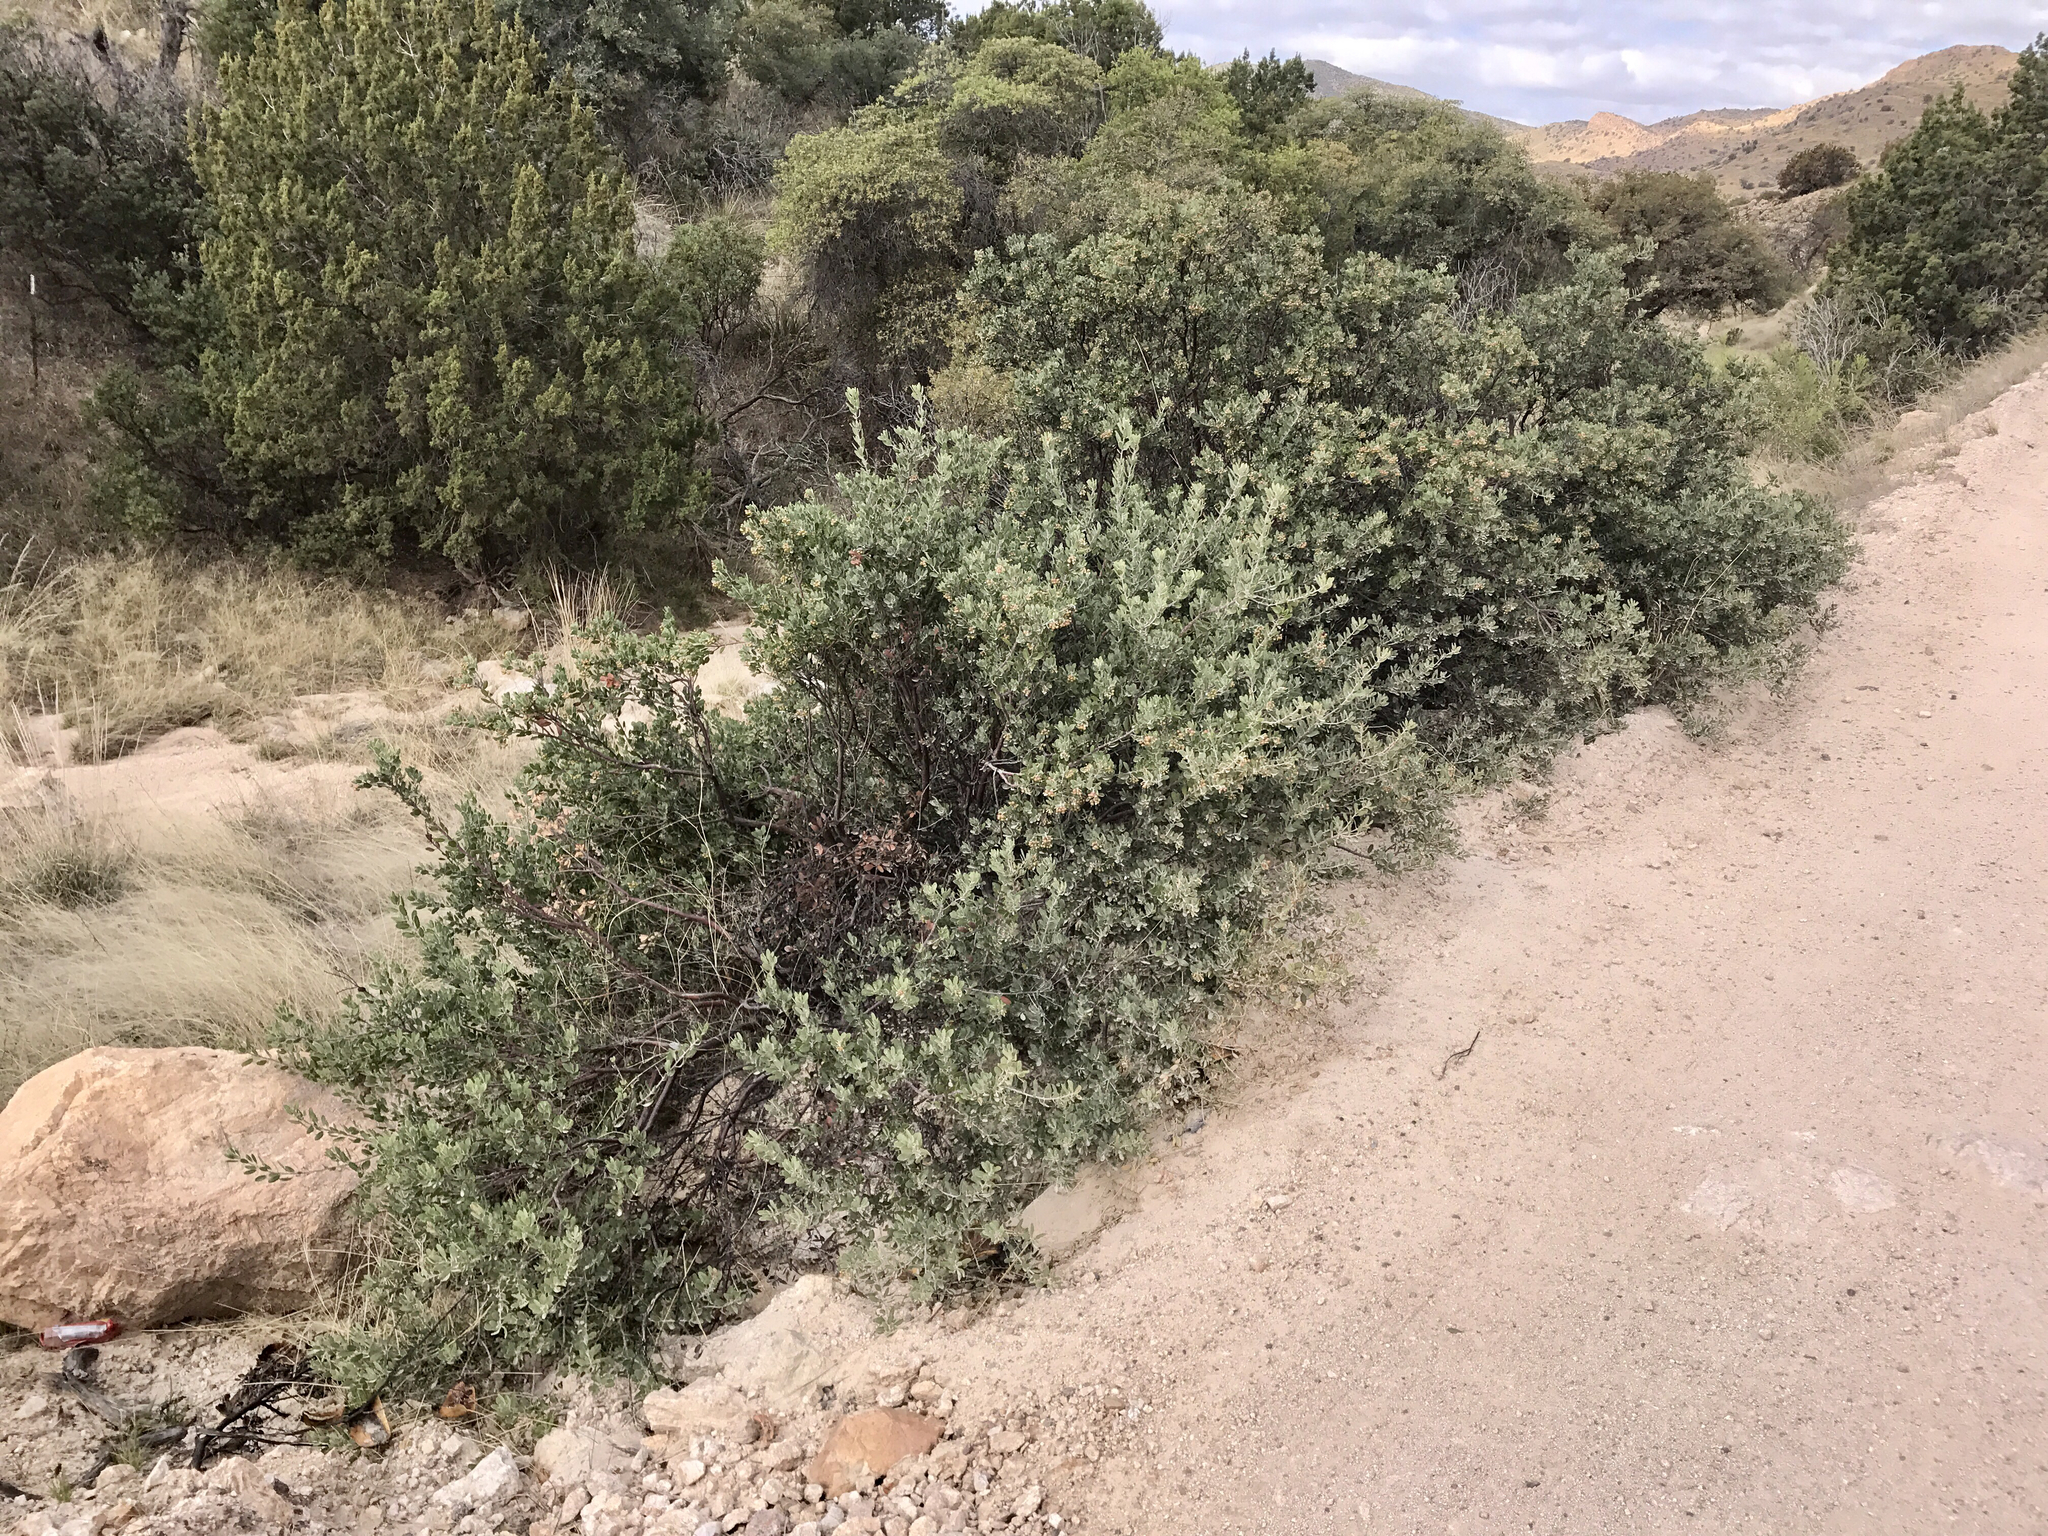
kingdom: Plantae
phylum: Tracheophyta
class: Magnoliopsida
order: Ericales
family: Ericaceae
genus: Arctostaphylos
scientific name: Arctostaphylos pungens
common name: Mexican manzanita
